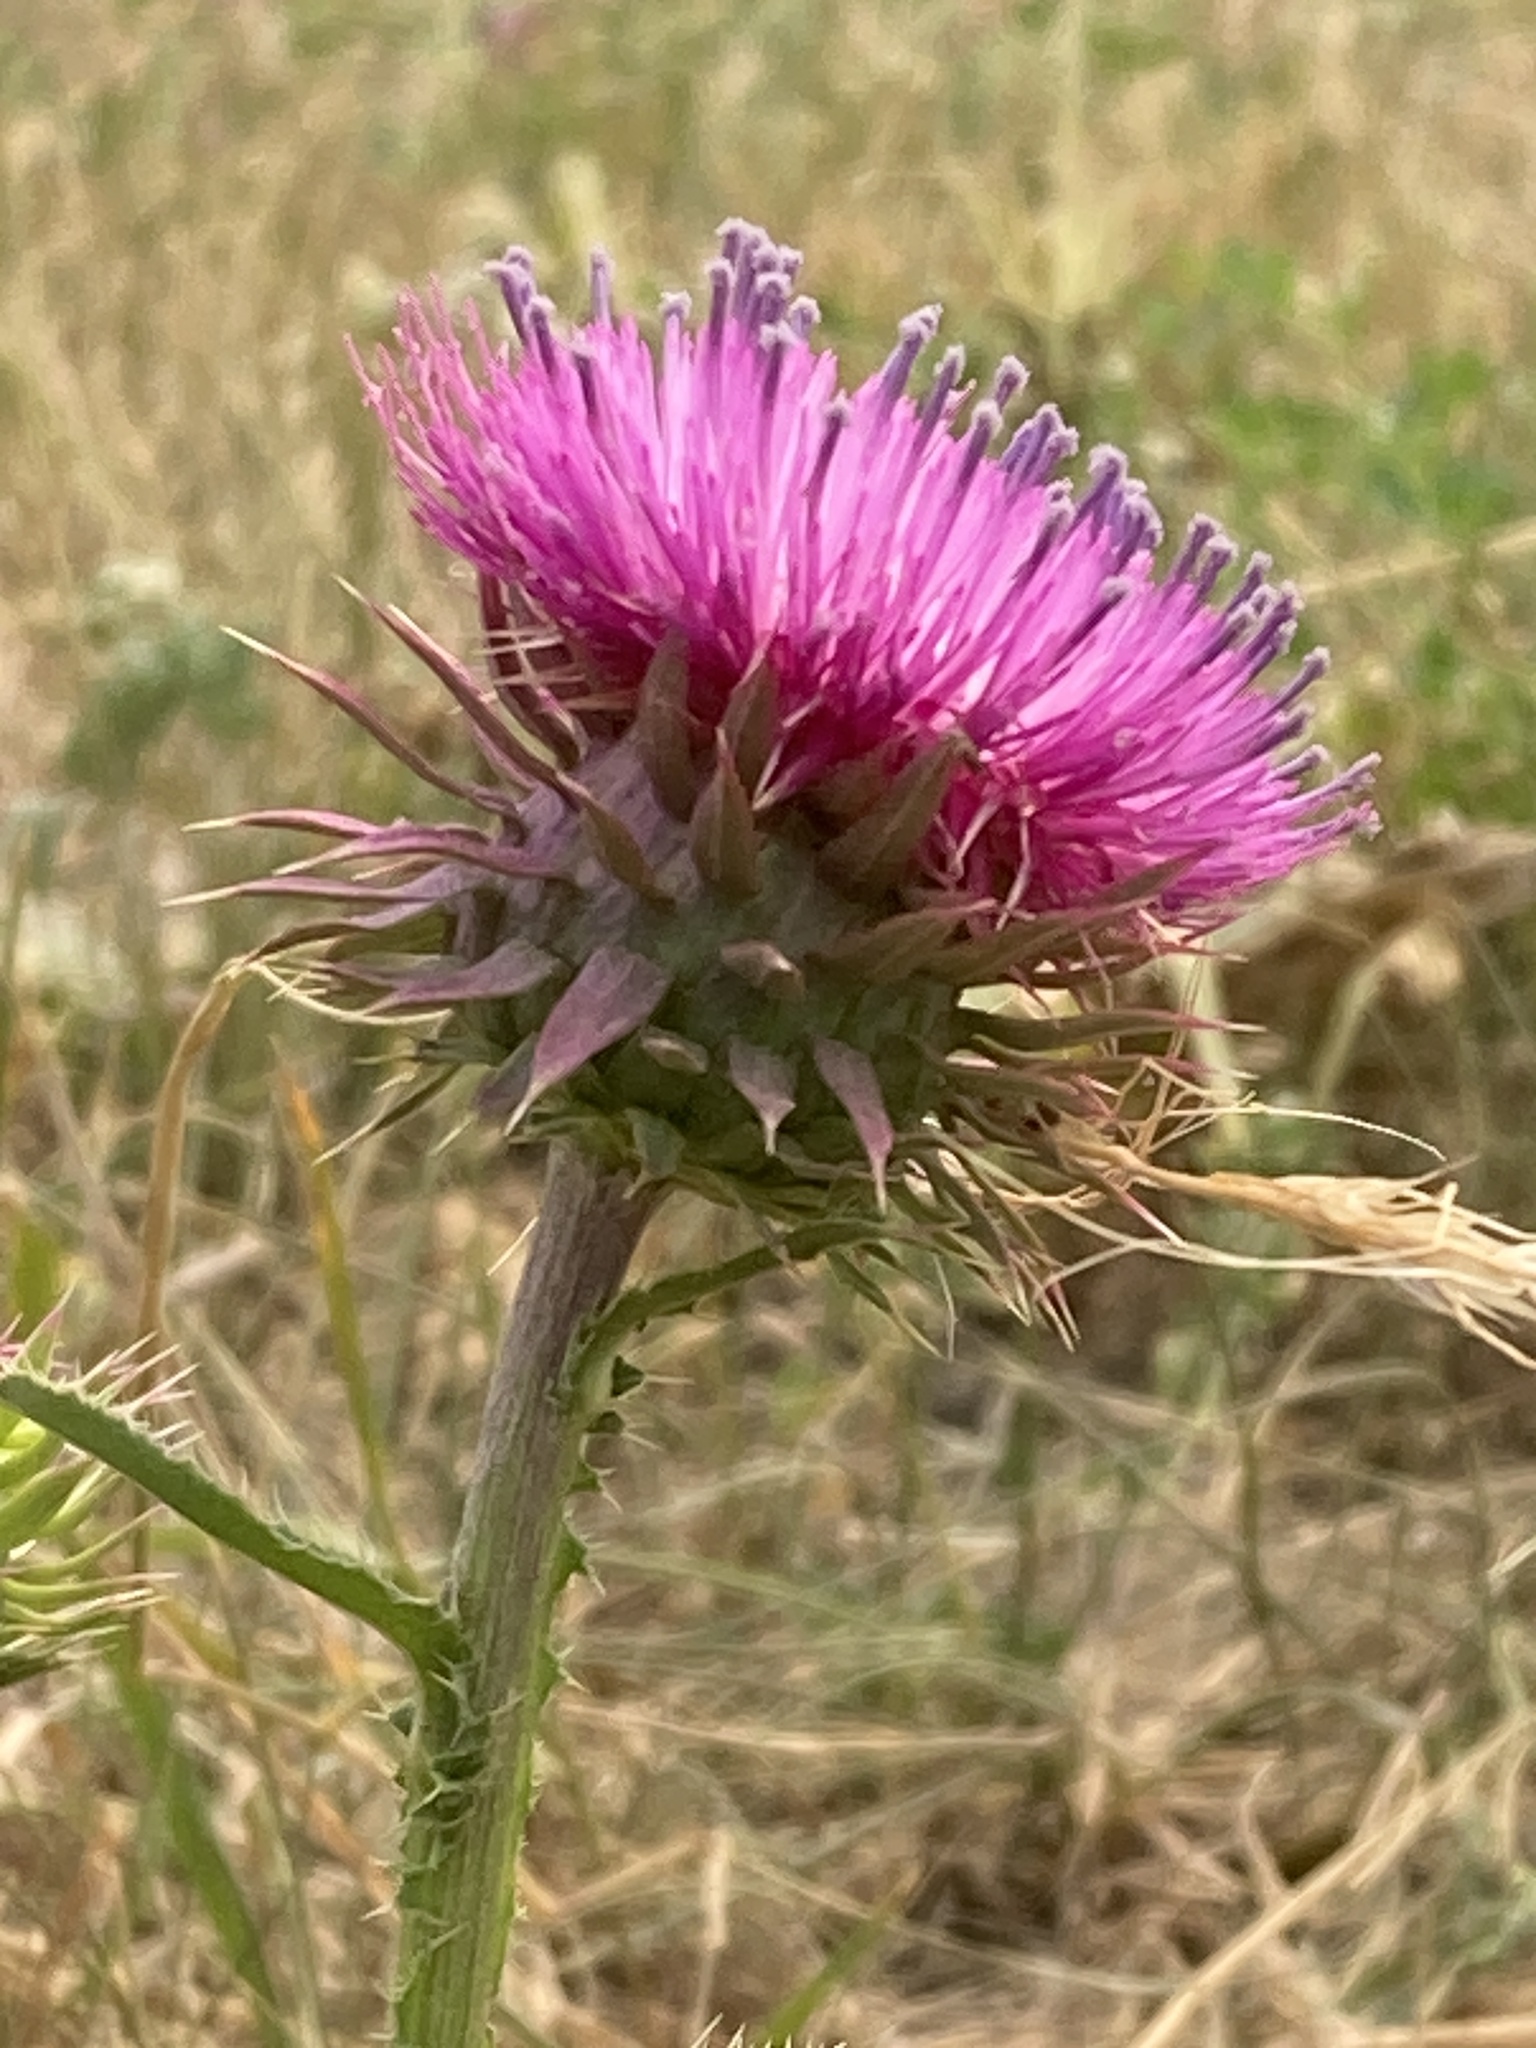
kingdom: Plantae
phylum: Tracheophyta
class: Magnoliopsida
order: Asterales
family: Asteraceae
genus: Carduus
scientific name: Carduus nutans
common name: Musk thistle
